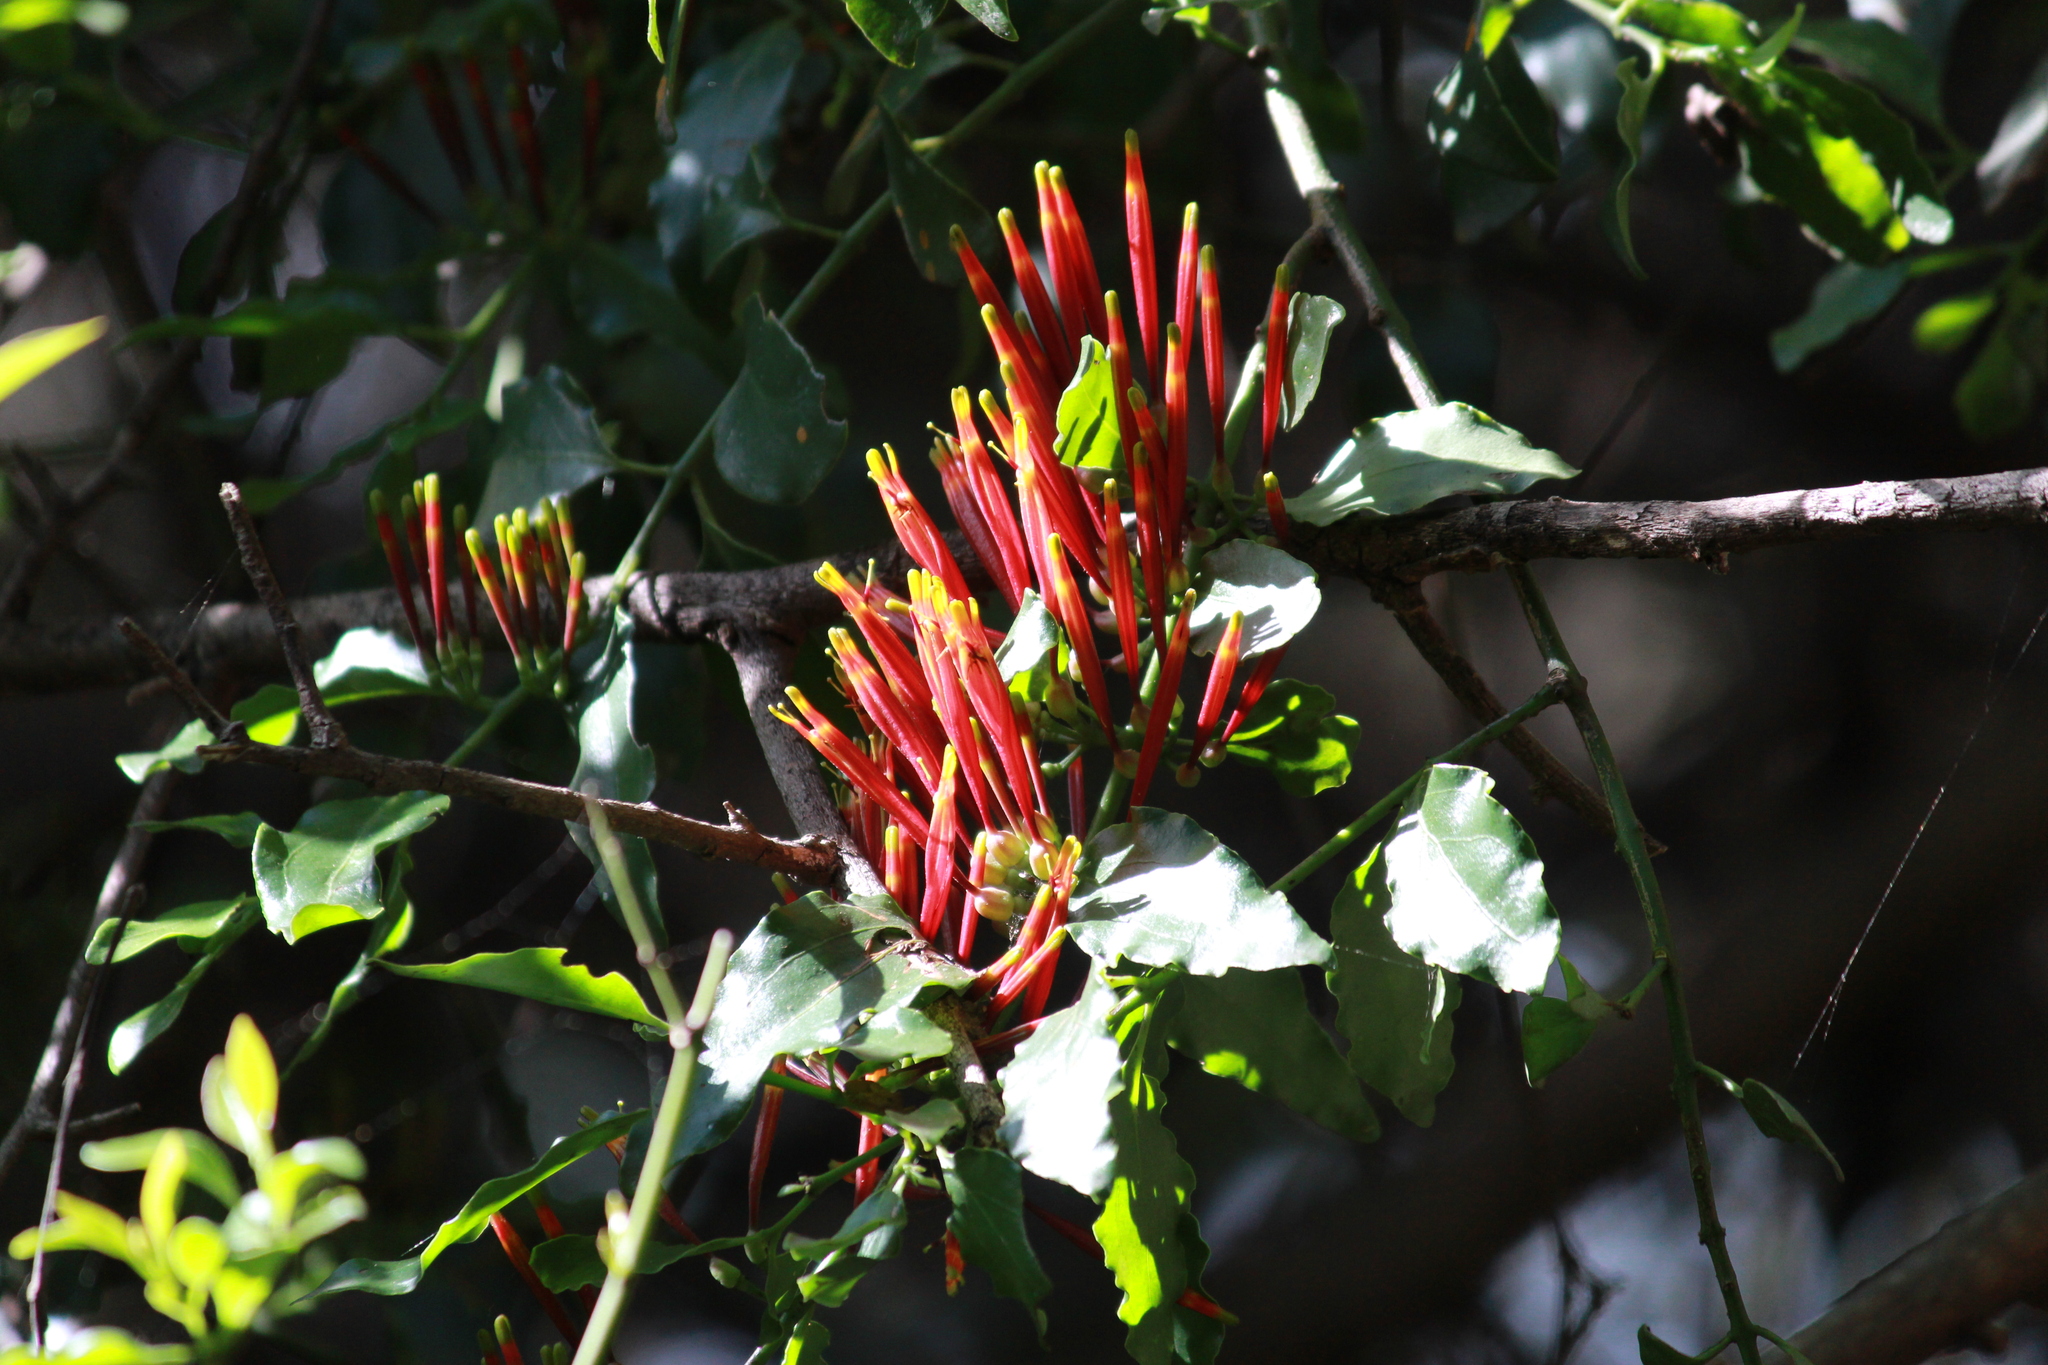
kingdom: Plantae
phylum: Tracheophyta
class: Magnoliopsida
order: Santalales
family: Loranthaceae
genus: Agelanthus
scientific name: Agelanthus kraussianus
